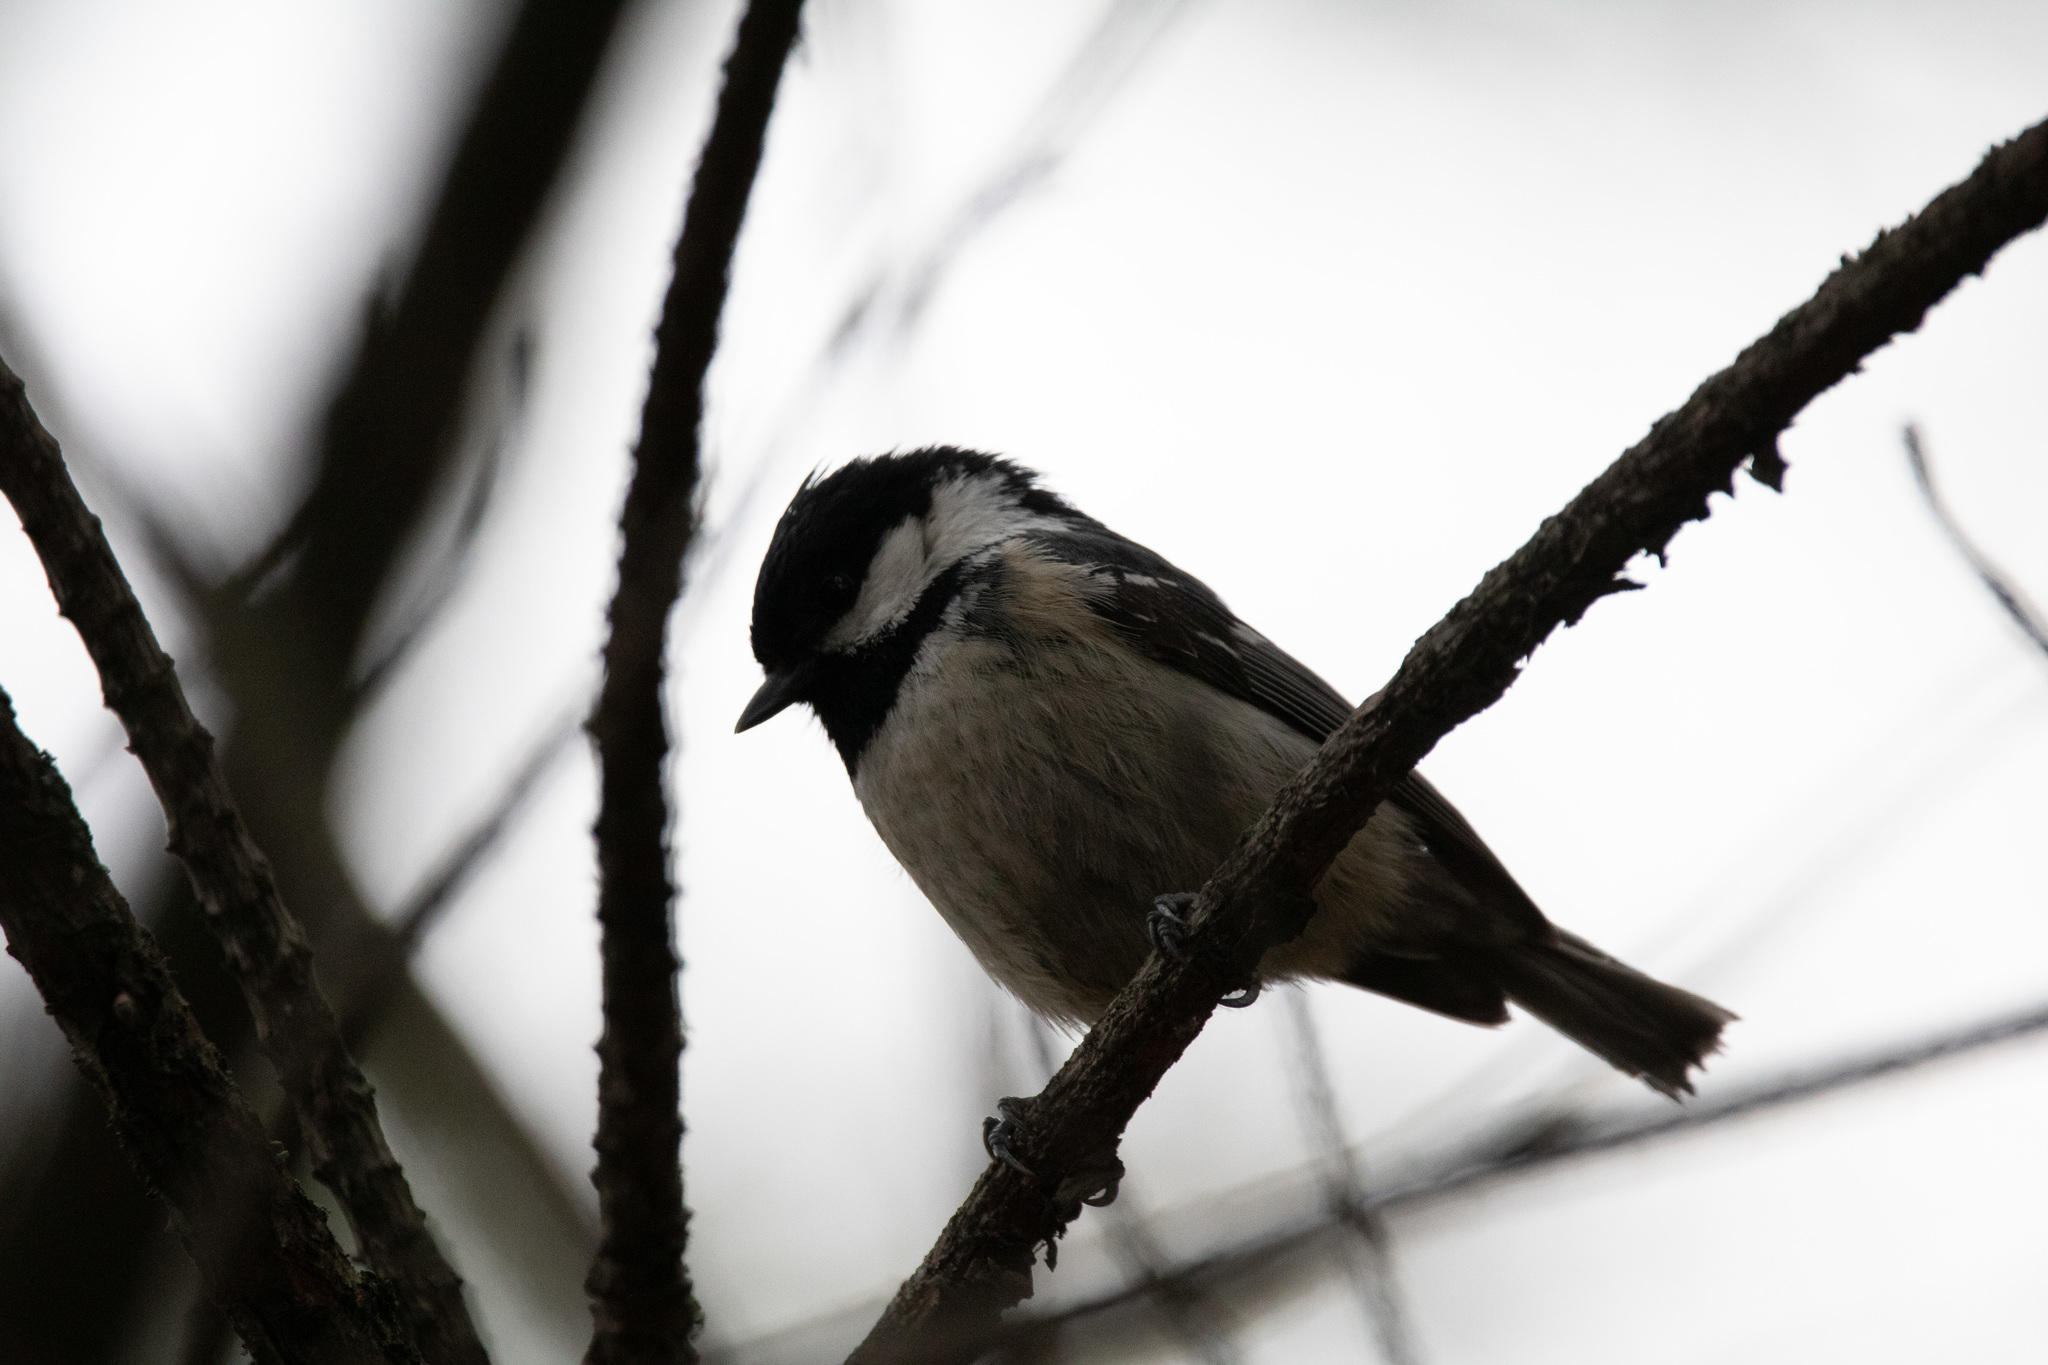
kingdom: Animalia
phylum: Chordata
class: Aves
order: Passeriformes
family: Paridae
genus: Periparus
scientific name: Periparus ater
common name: Coal tit
